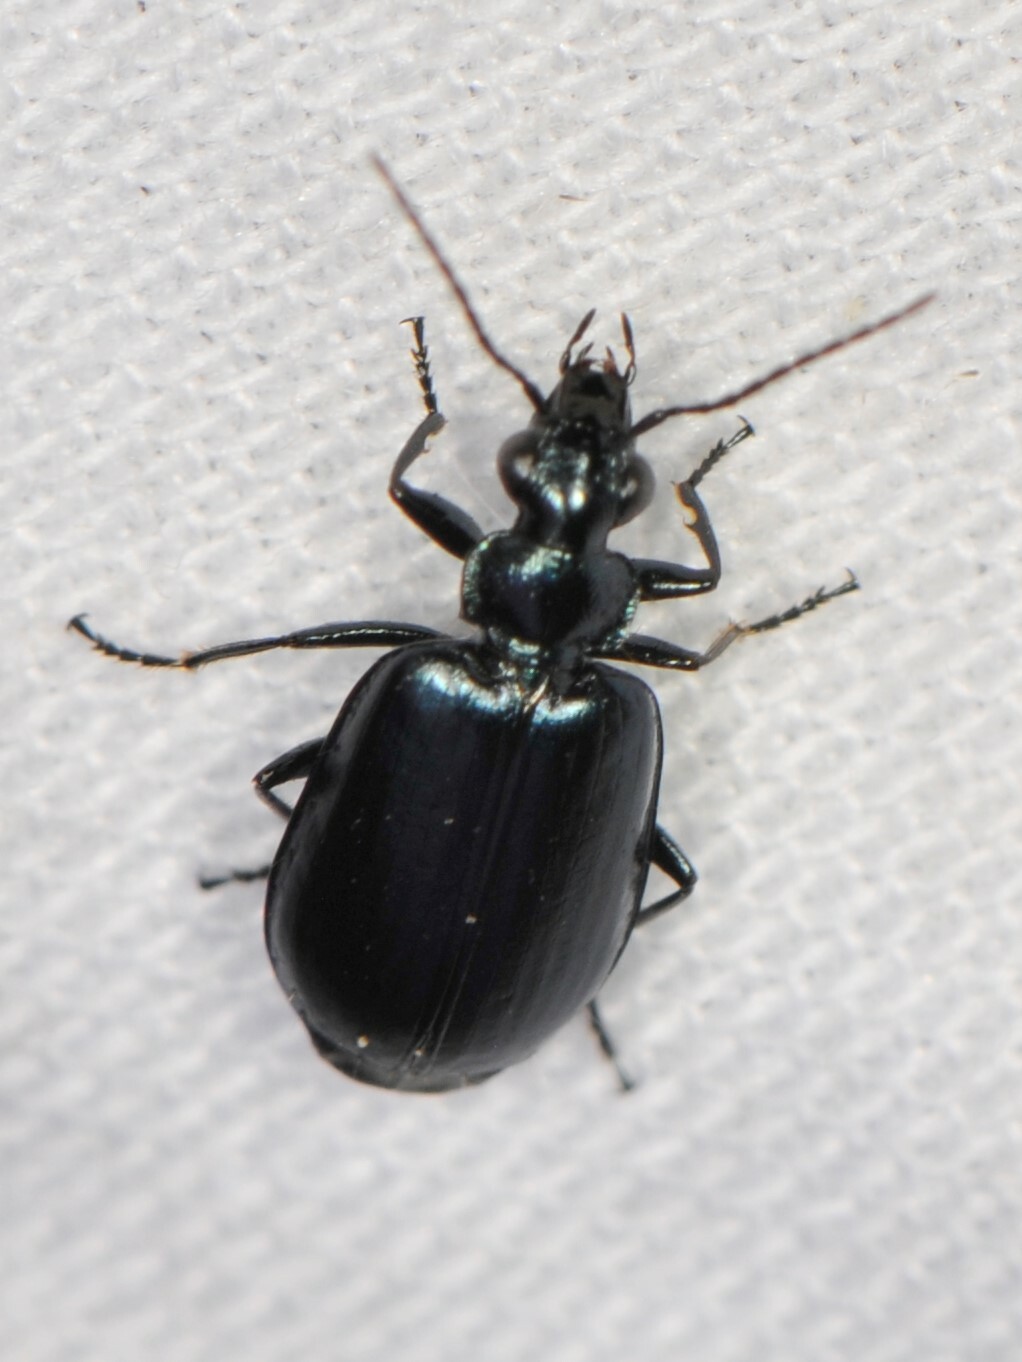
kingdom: Animalia
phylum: Arthropoda
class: Insecta
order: Coleoptera
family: Carabidae
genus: Lebia
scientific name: Lebia
